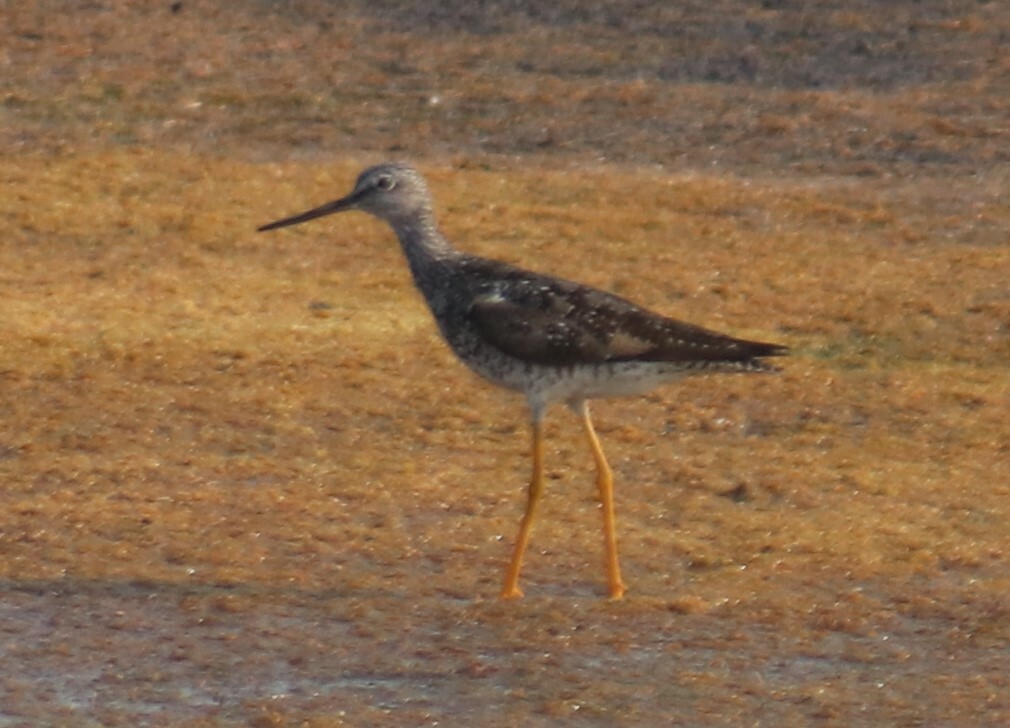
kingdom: Animalia
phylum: Chordata
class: Aves
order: Charadriiformes
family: Scolopacidae
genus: Tringa
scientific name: Tringa melanoleuca
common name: Greater yellowlegs
